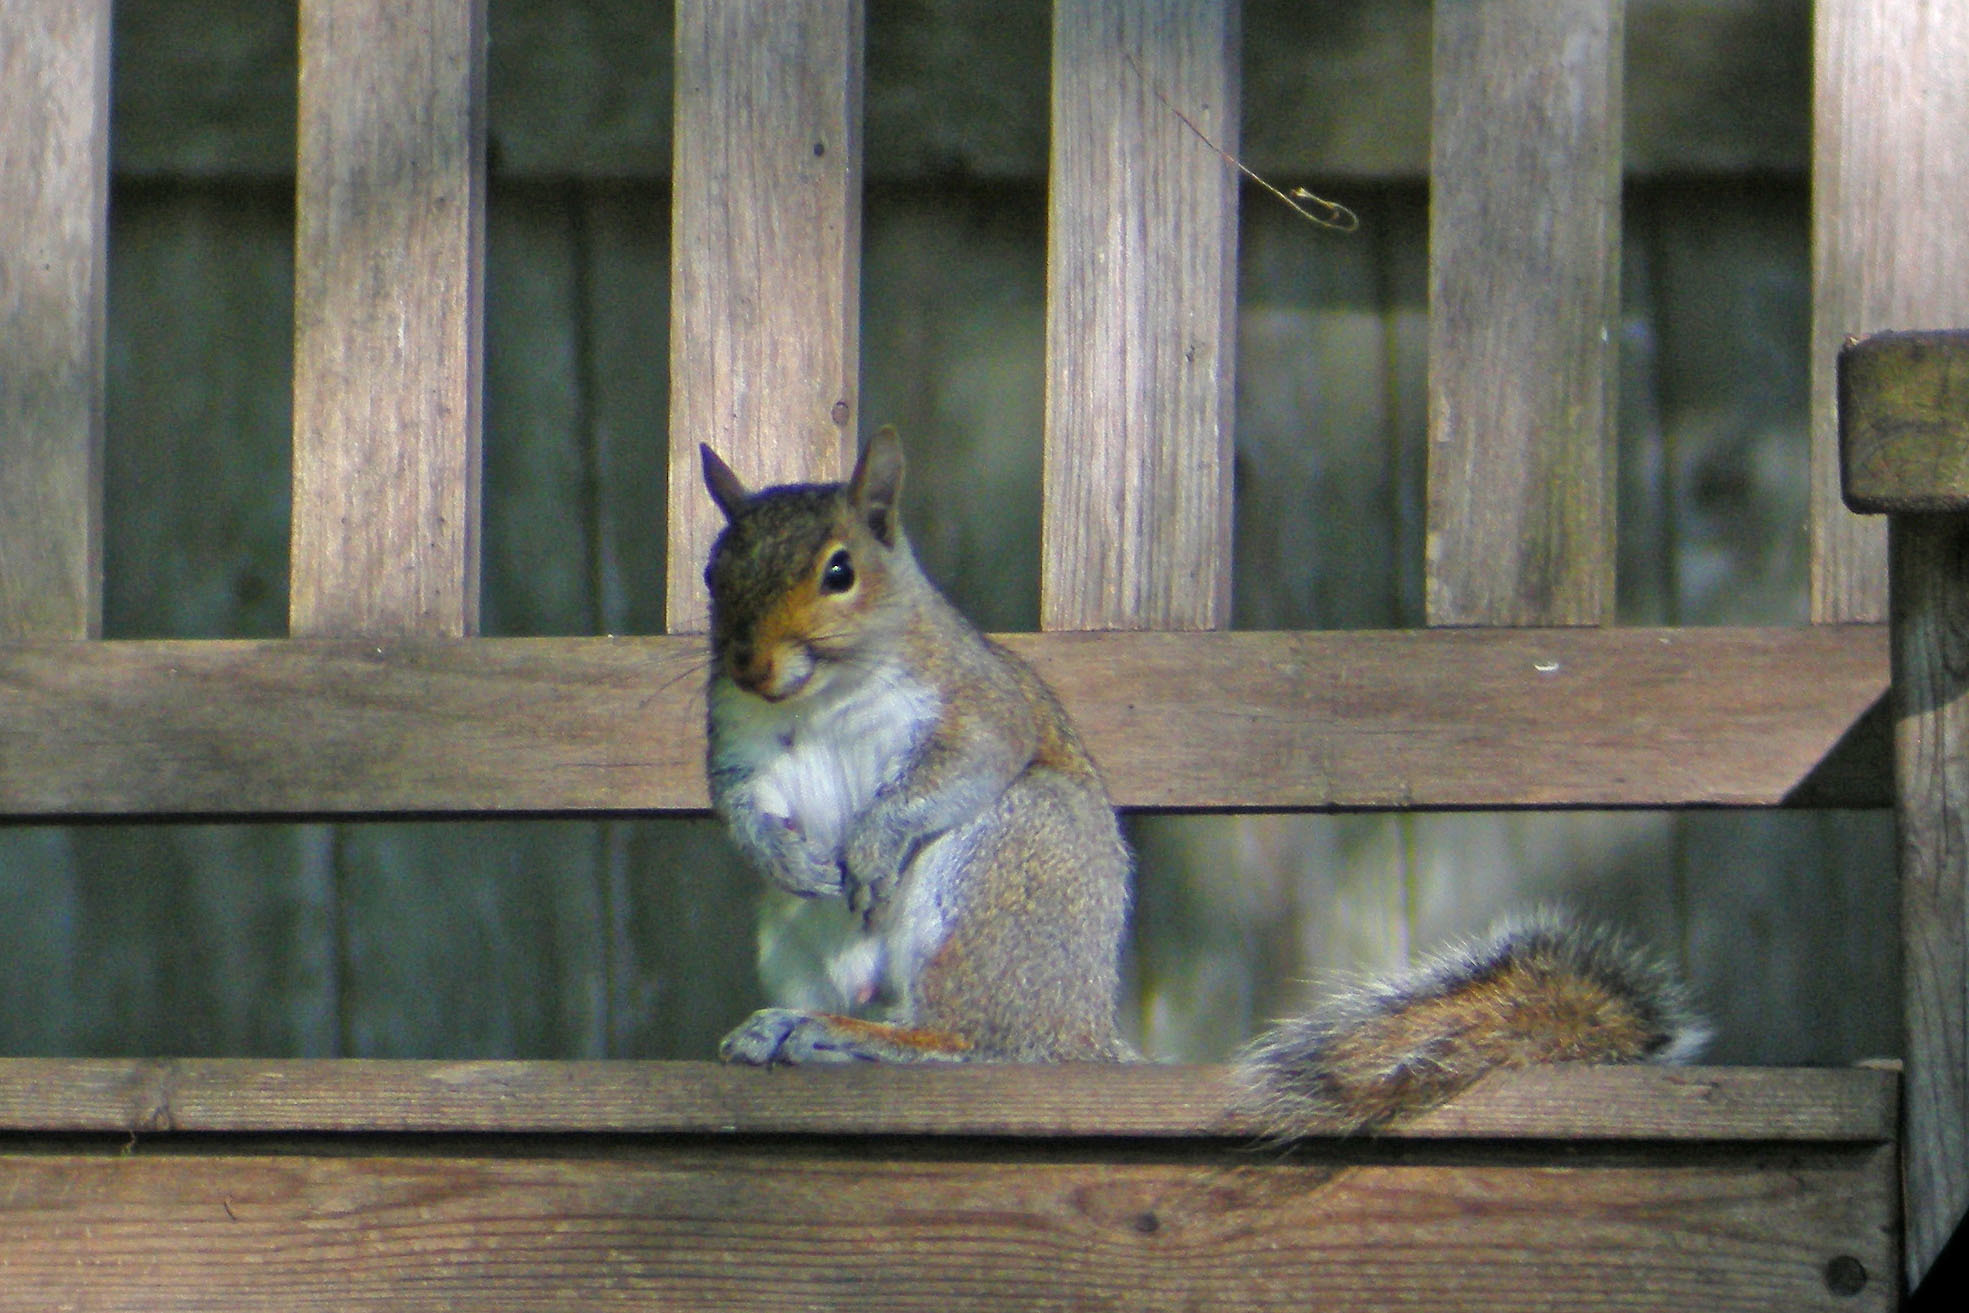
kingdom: Animalia
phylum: Chordata
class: Mammalia
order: Rodentia
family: Sciuridae
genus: Sciurus
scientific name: Sciurus carolinensis
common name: Eastern gray squirrel
